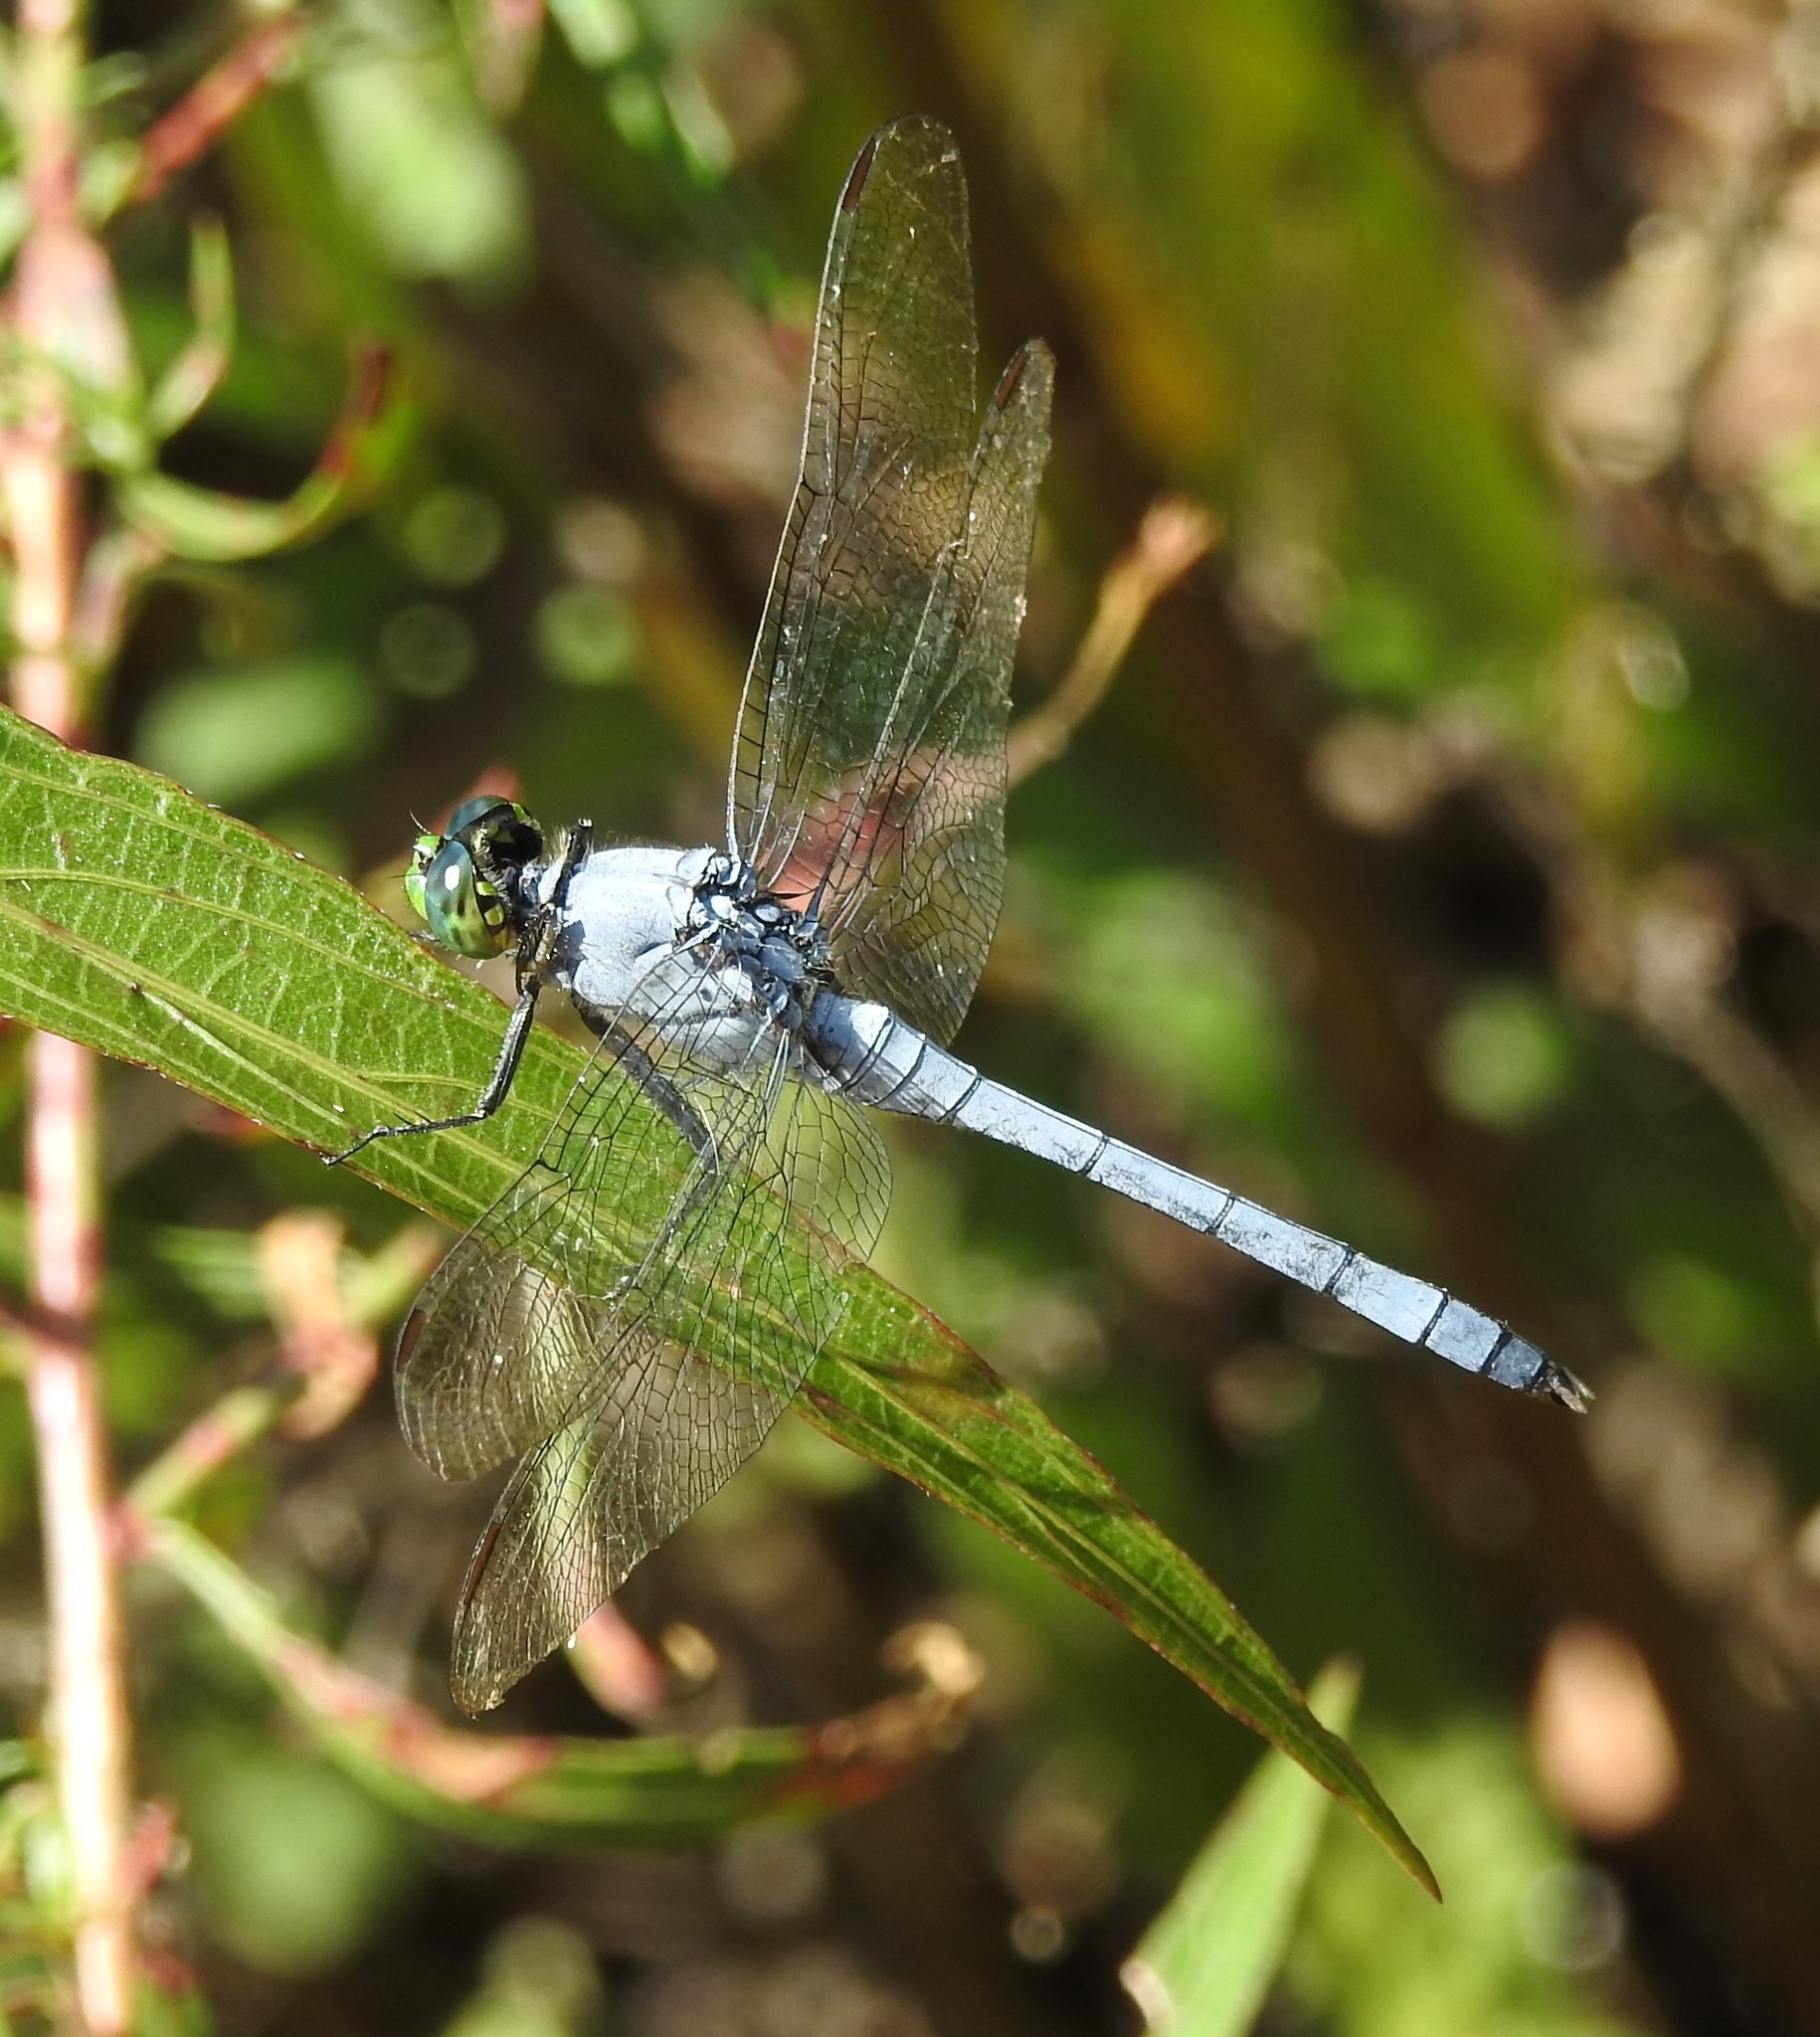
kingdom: Animalia
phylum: Arthropoda
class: Insecta
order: Odonata
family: Libellulidae
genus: Erythemis
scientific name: Erythemis simplicicollis
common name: Eastern pondhawk
